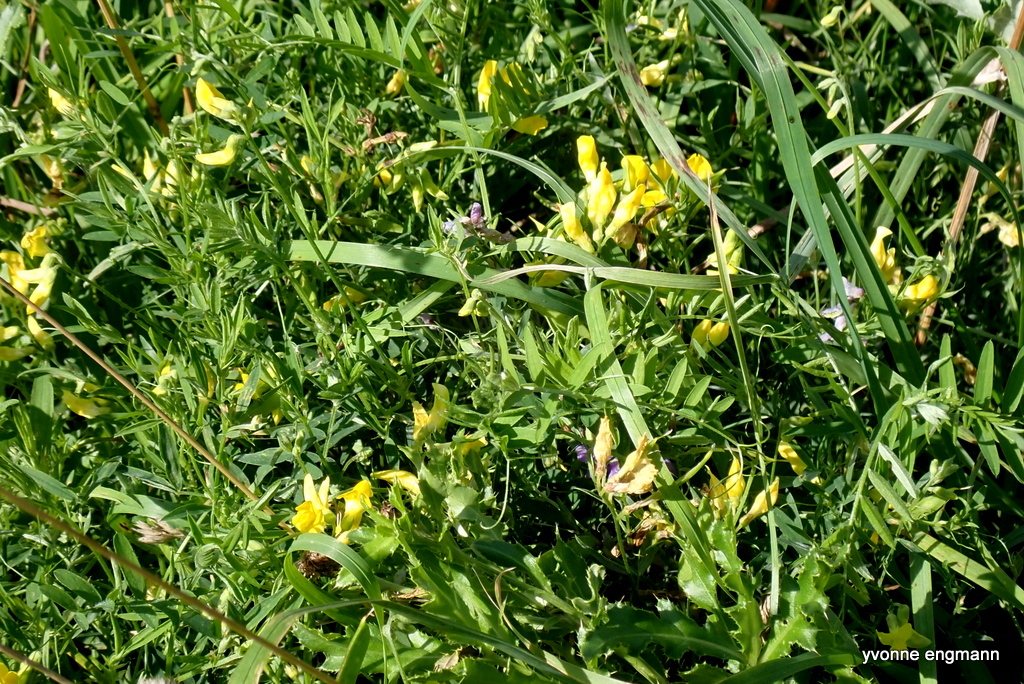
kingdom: Plantae
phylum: Tracheophyta
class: Magnoliopsida
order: Fabales
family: Fabaceae
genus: Lathyrus
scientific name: Lathyrus pratensis
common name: Meadow vetchling
